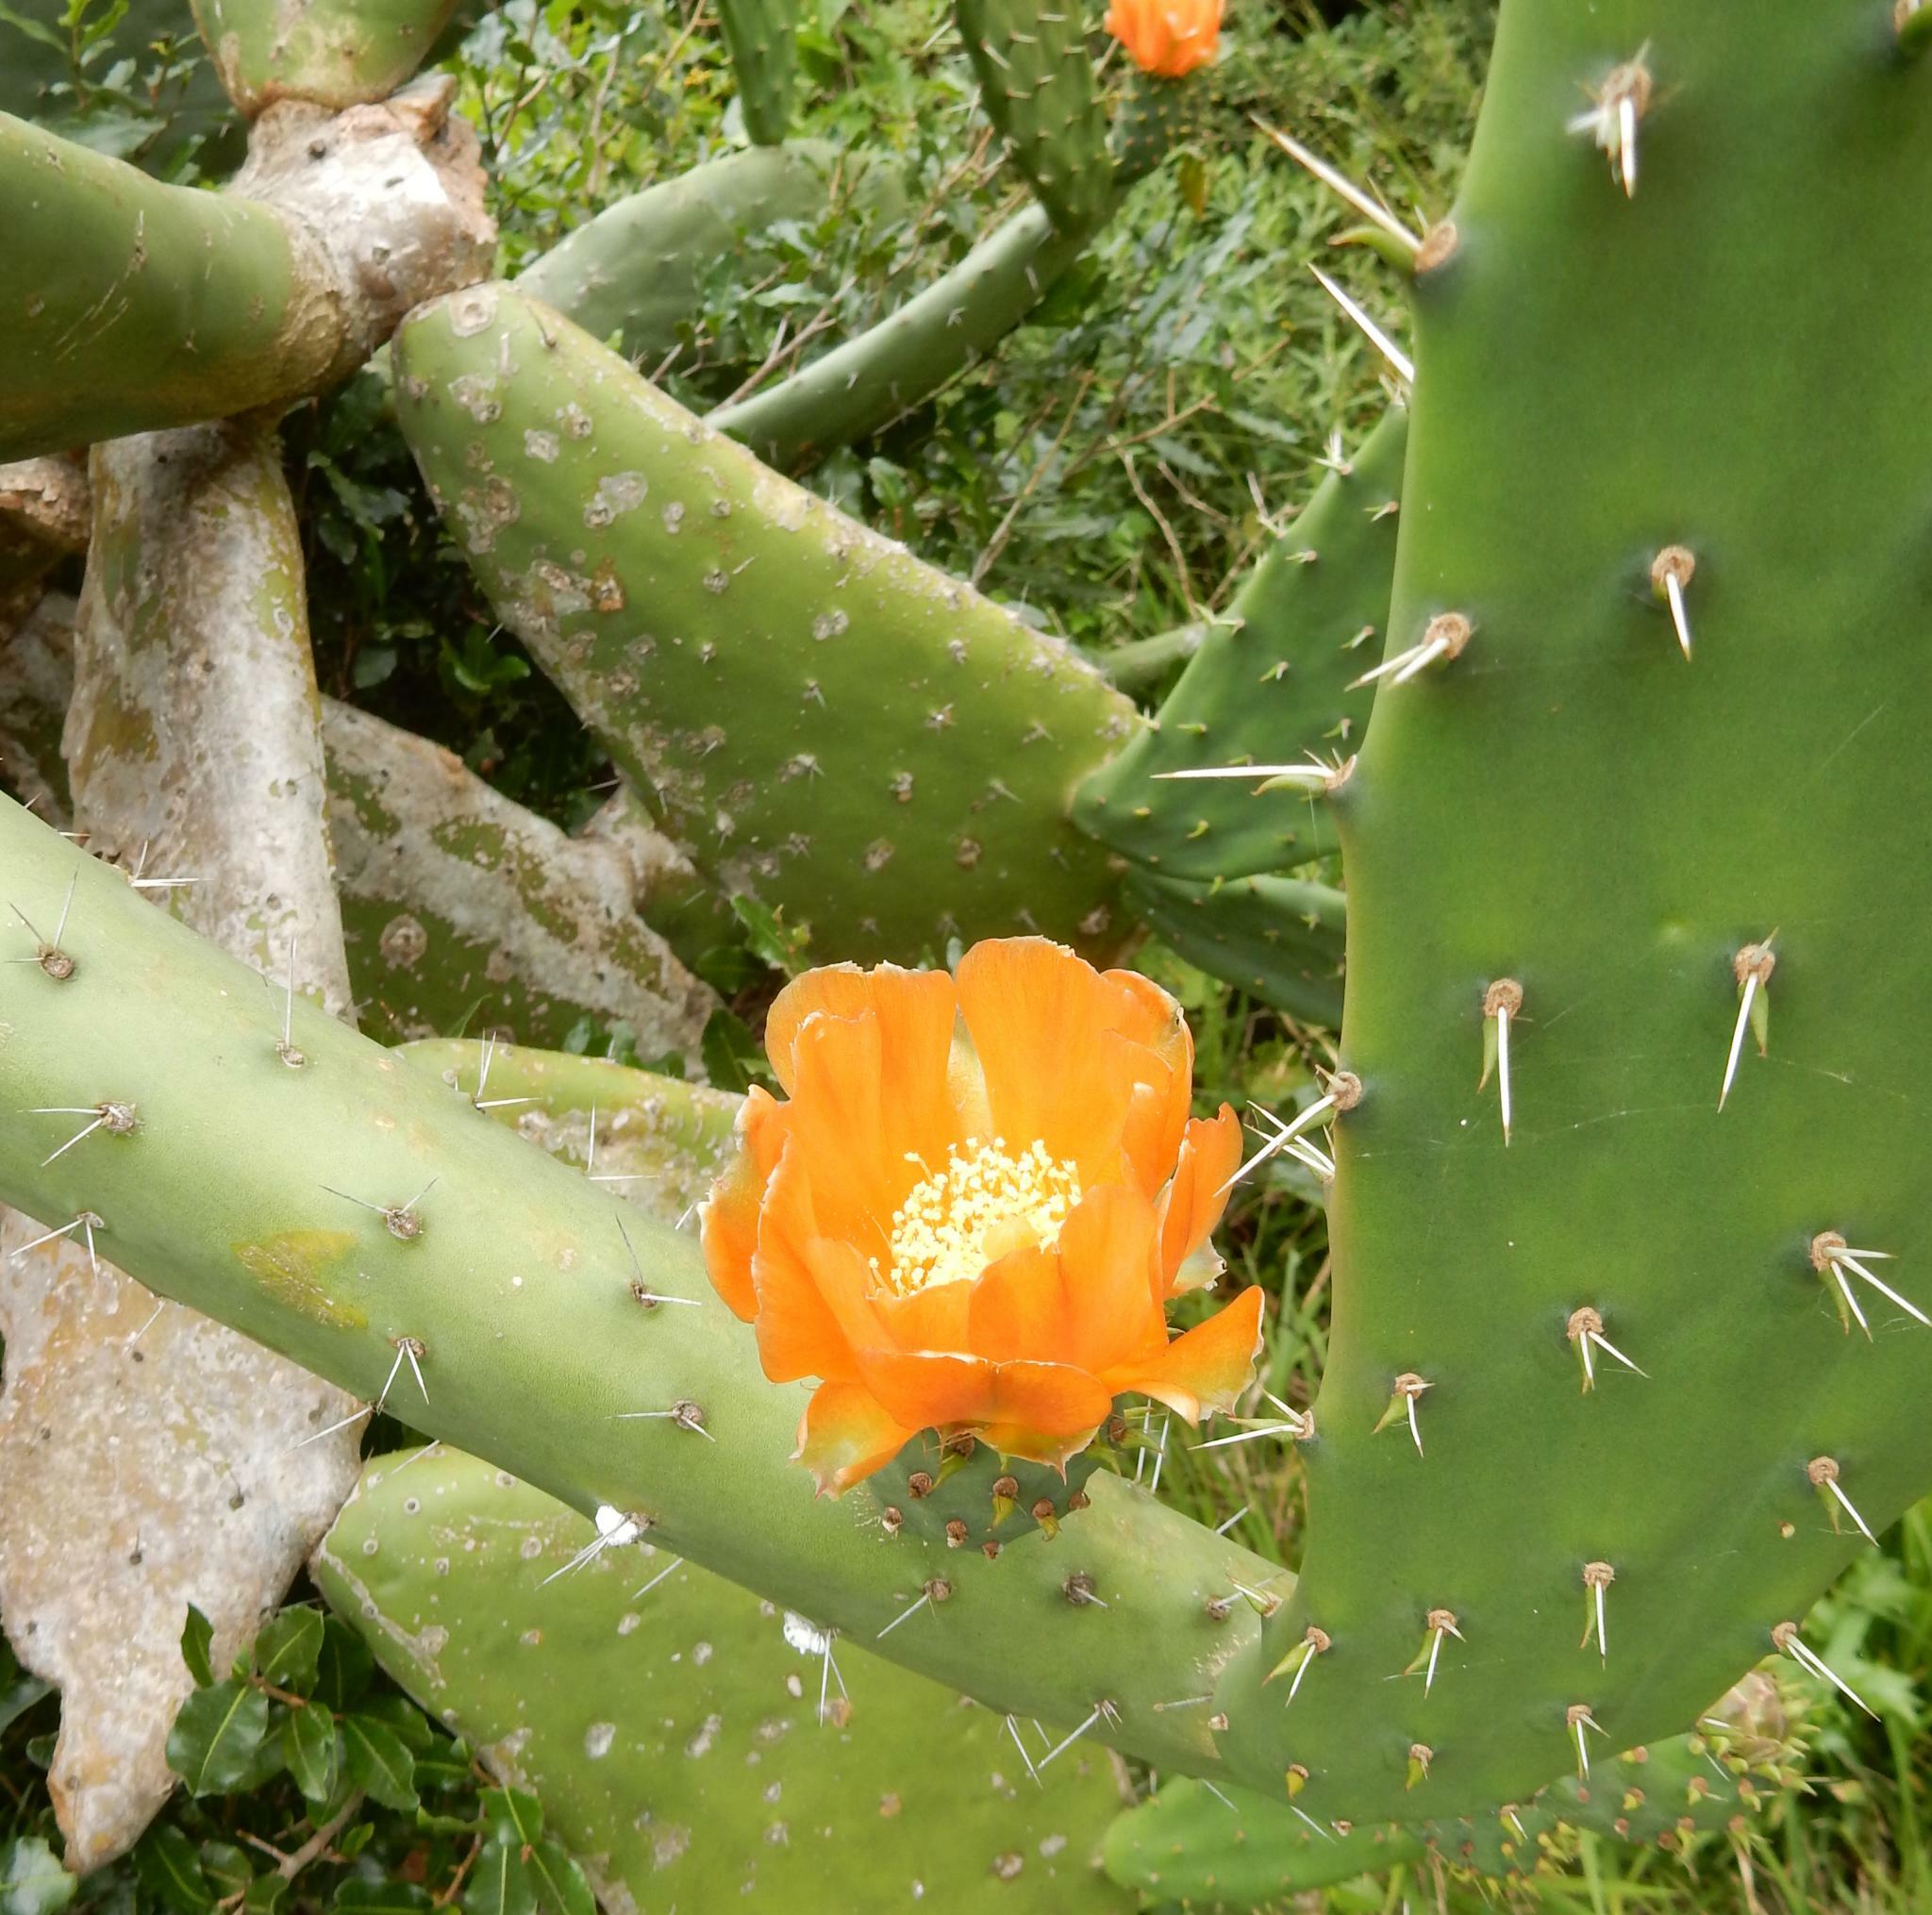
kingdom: Plantae
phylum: Tracheophyta
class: Magnoliopsida
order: Caryophyllales
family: Cactaceae
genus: Opuntia
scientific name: Opuntia ficus-indica
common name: Barbary fig
